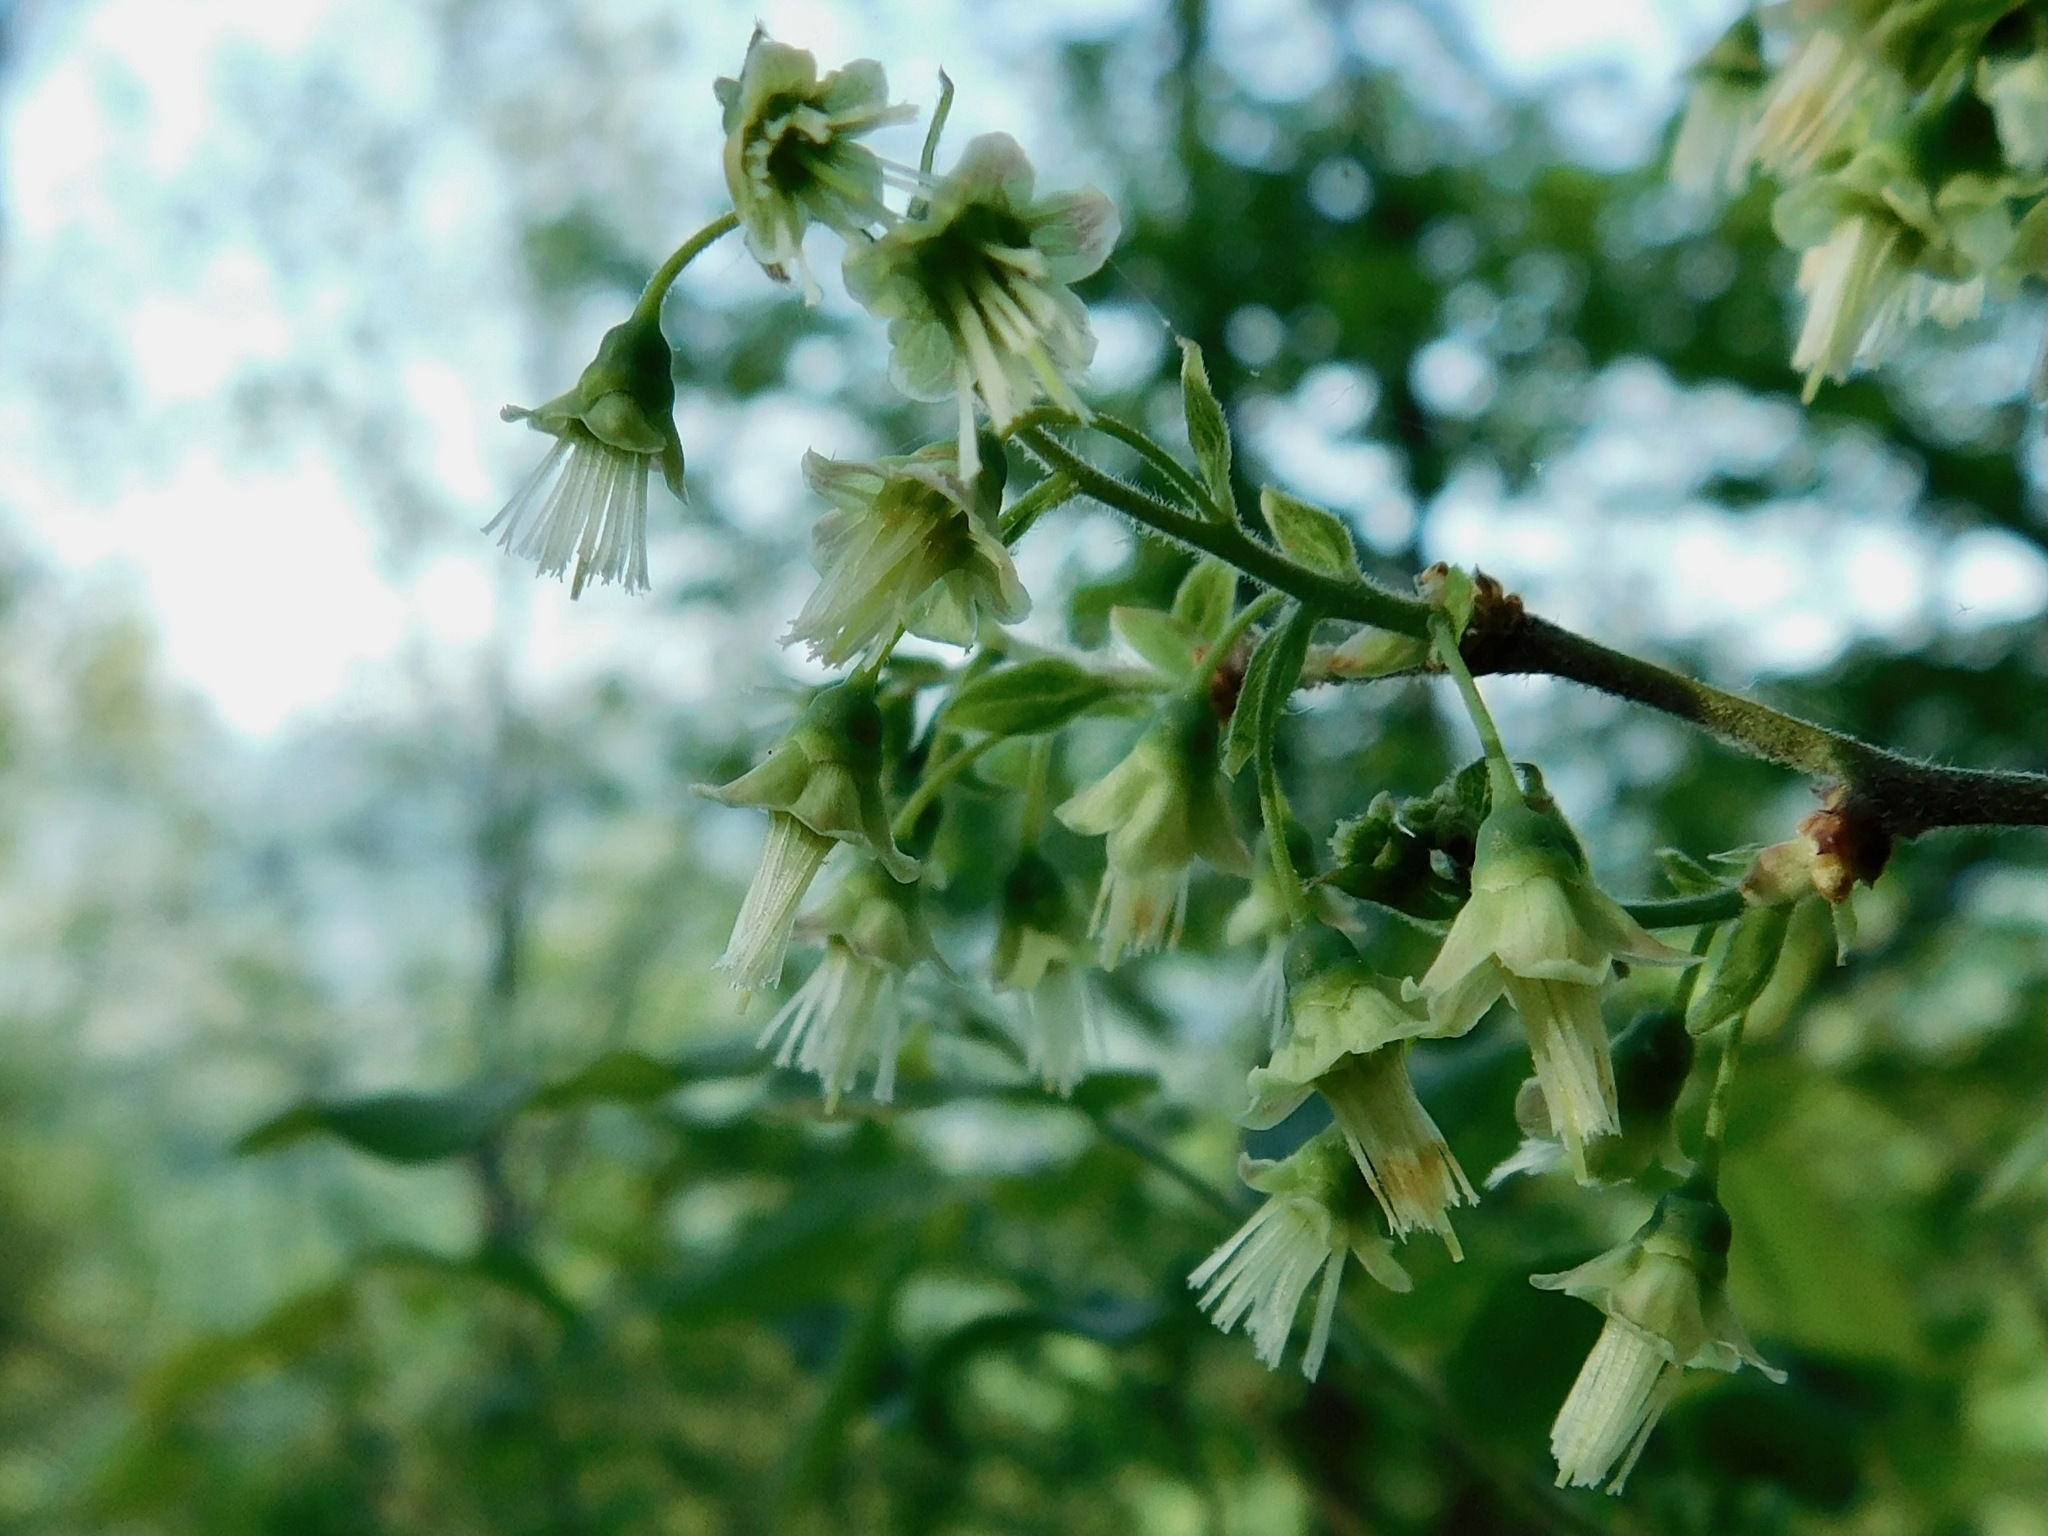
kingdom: Plantae
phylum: Tracheophyta
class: Magnoliopsida
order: Ericales
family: Ericaceae
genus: Vaccinium
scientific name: Vaccinium stamineum
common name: Deerberry
